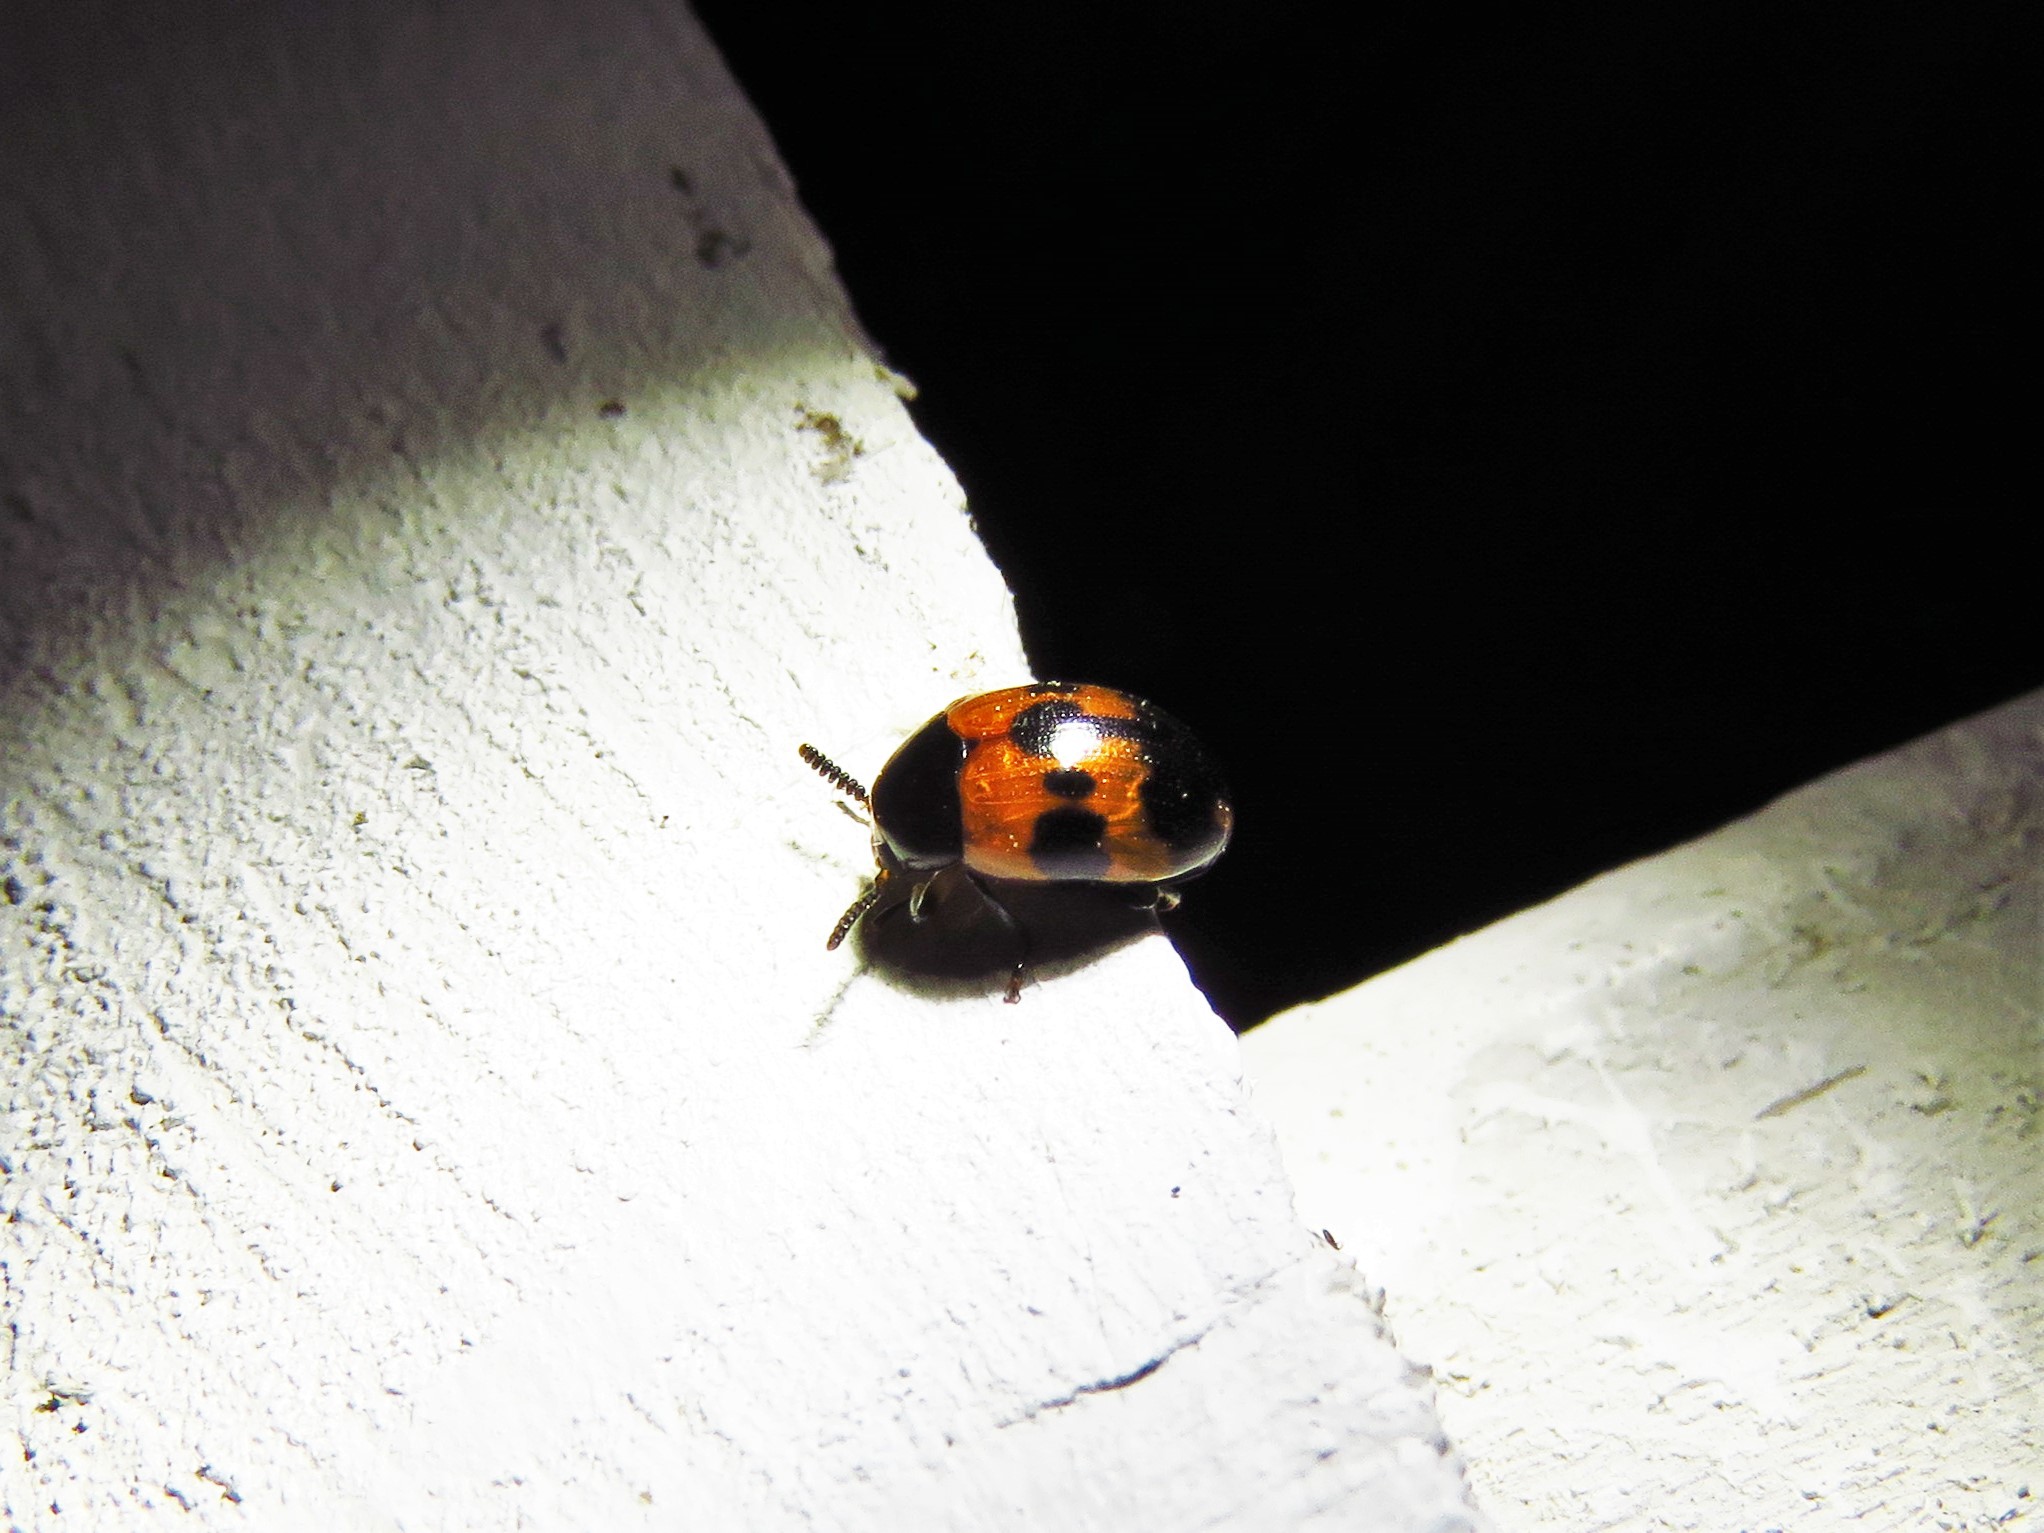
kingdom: Animalia
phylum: Arthropoda
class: Insecta
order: Coleoptera
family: Tenebrionidae
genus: Diaperis
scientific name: Diaperis nigronotata
